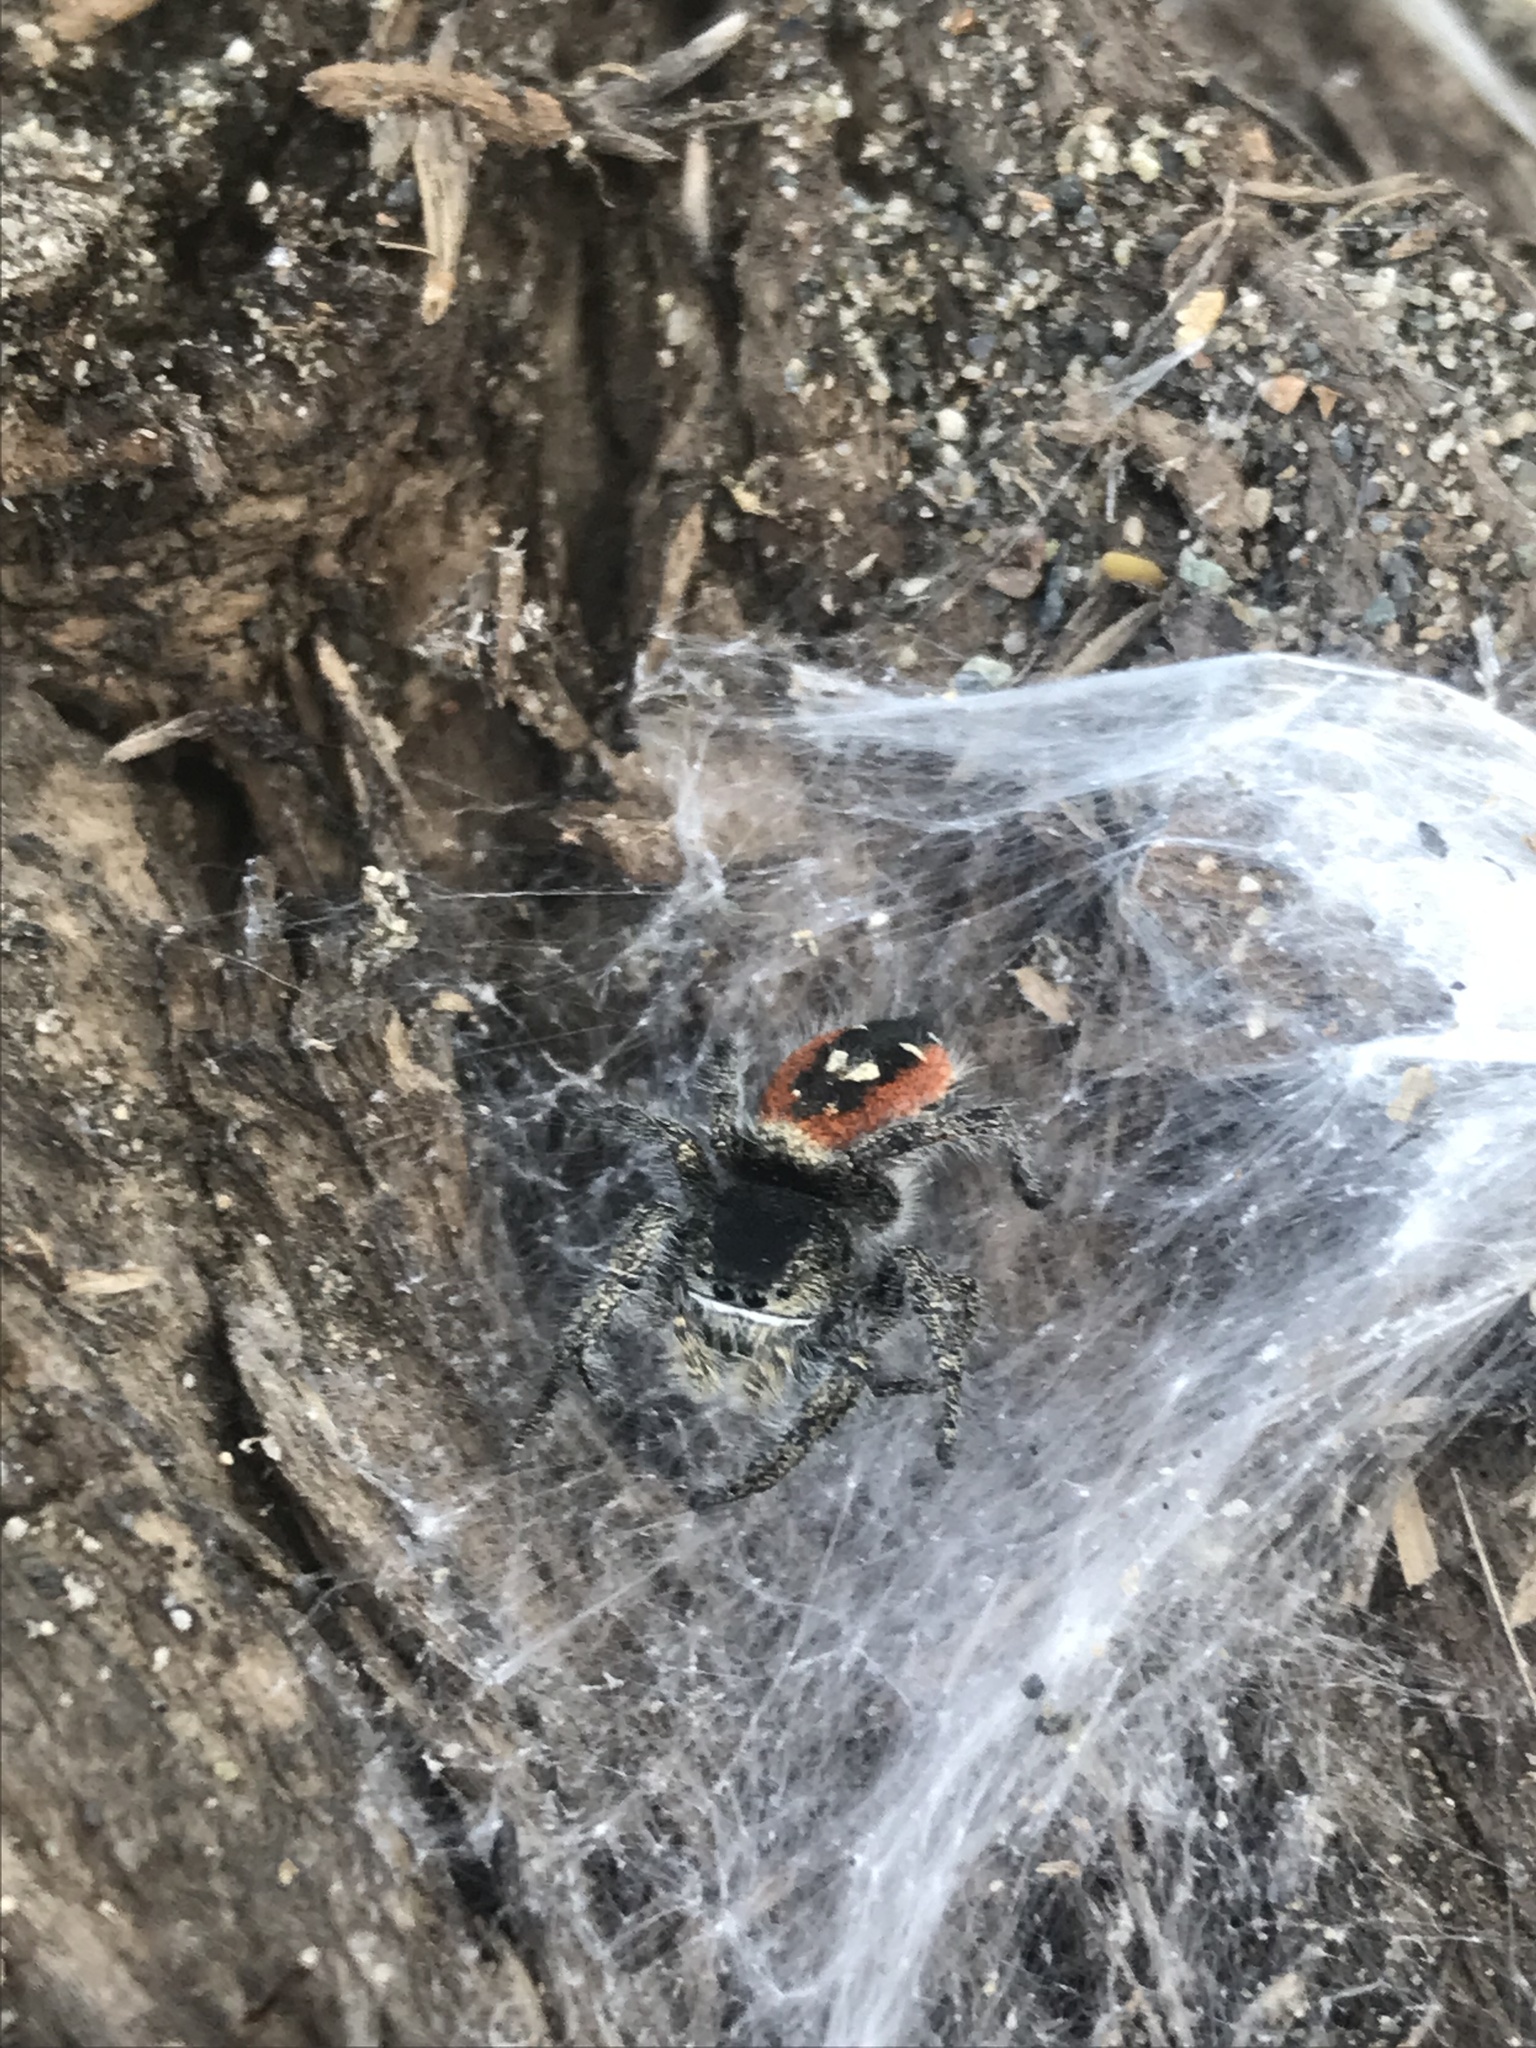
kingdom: Animalia
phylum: Arthropoda
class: Arachnida
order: Araneae
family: Salticidae
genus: Phidippus
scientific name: Phidippus johnsoni
